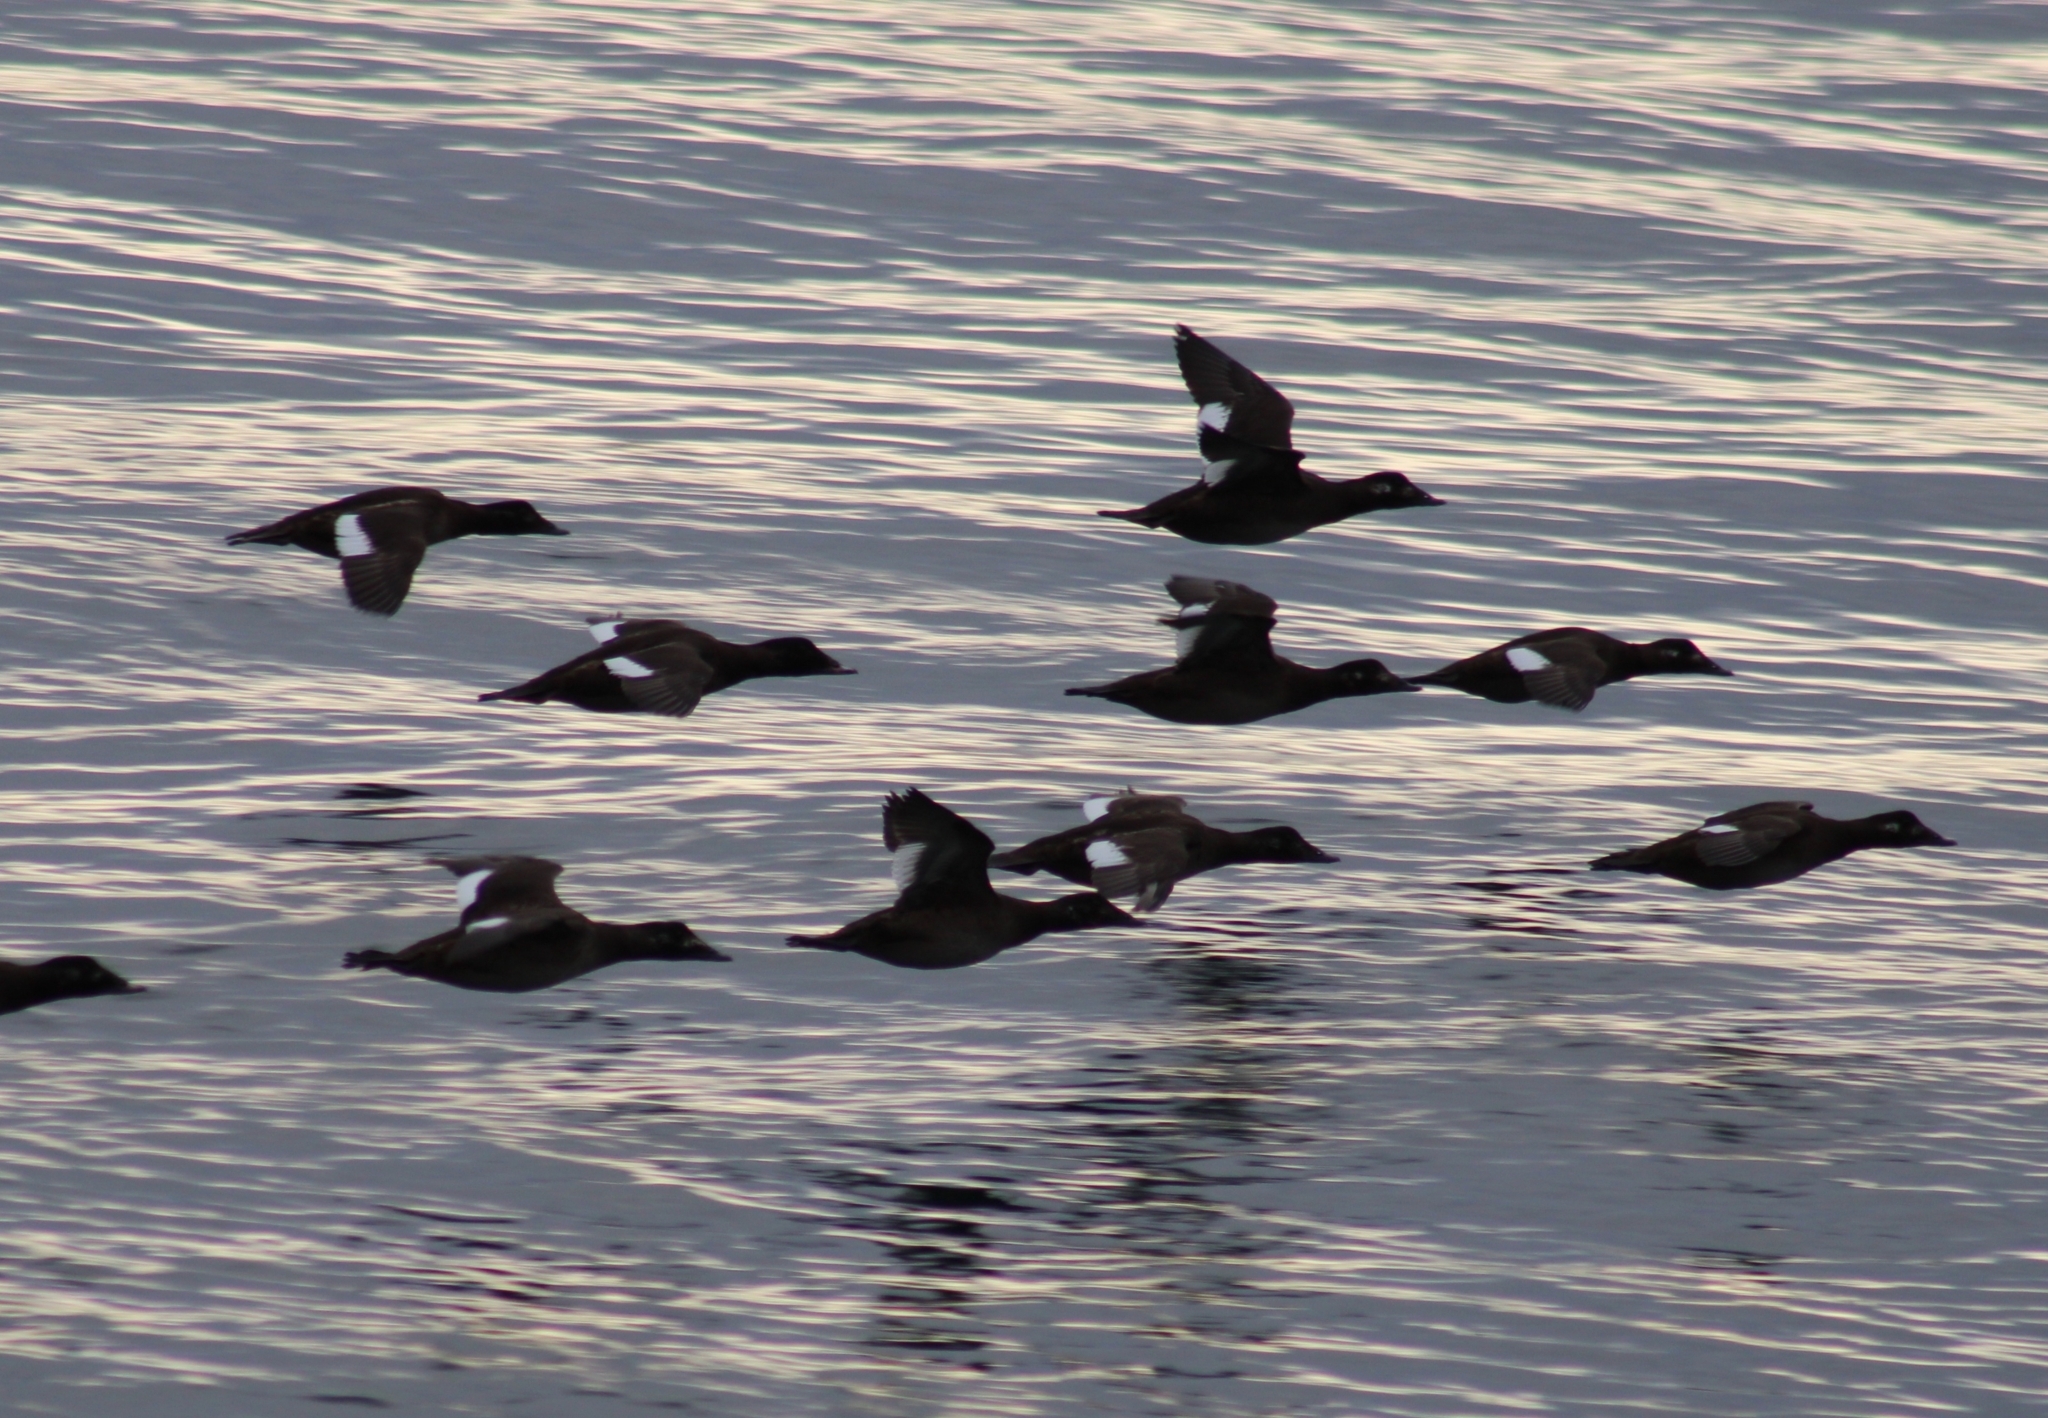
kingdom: Animalia
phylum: Chordata
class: Aves
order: Anseriformes
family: Anatidae
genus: Melanitta
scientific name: Melanitta deglandi
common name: White-winged scoter
